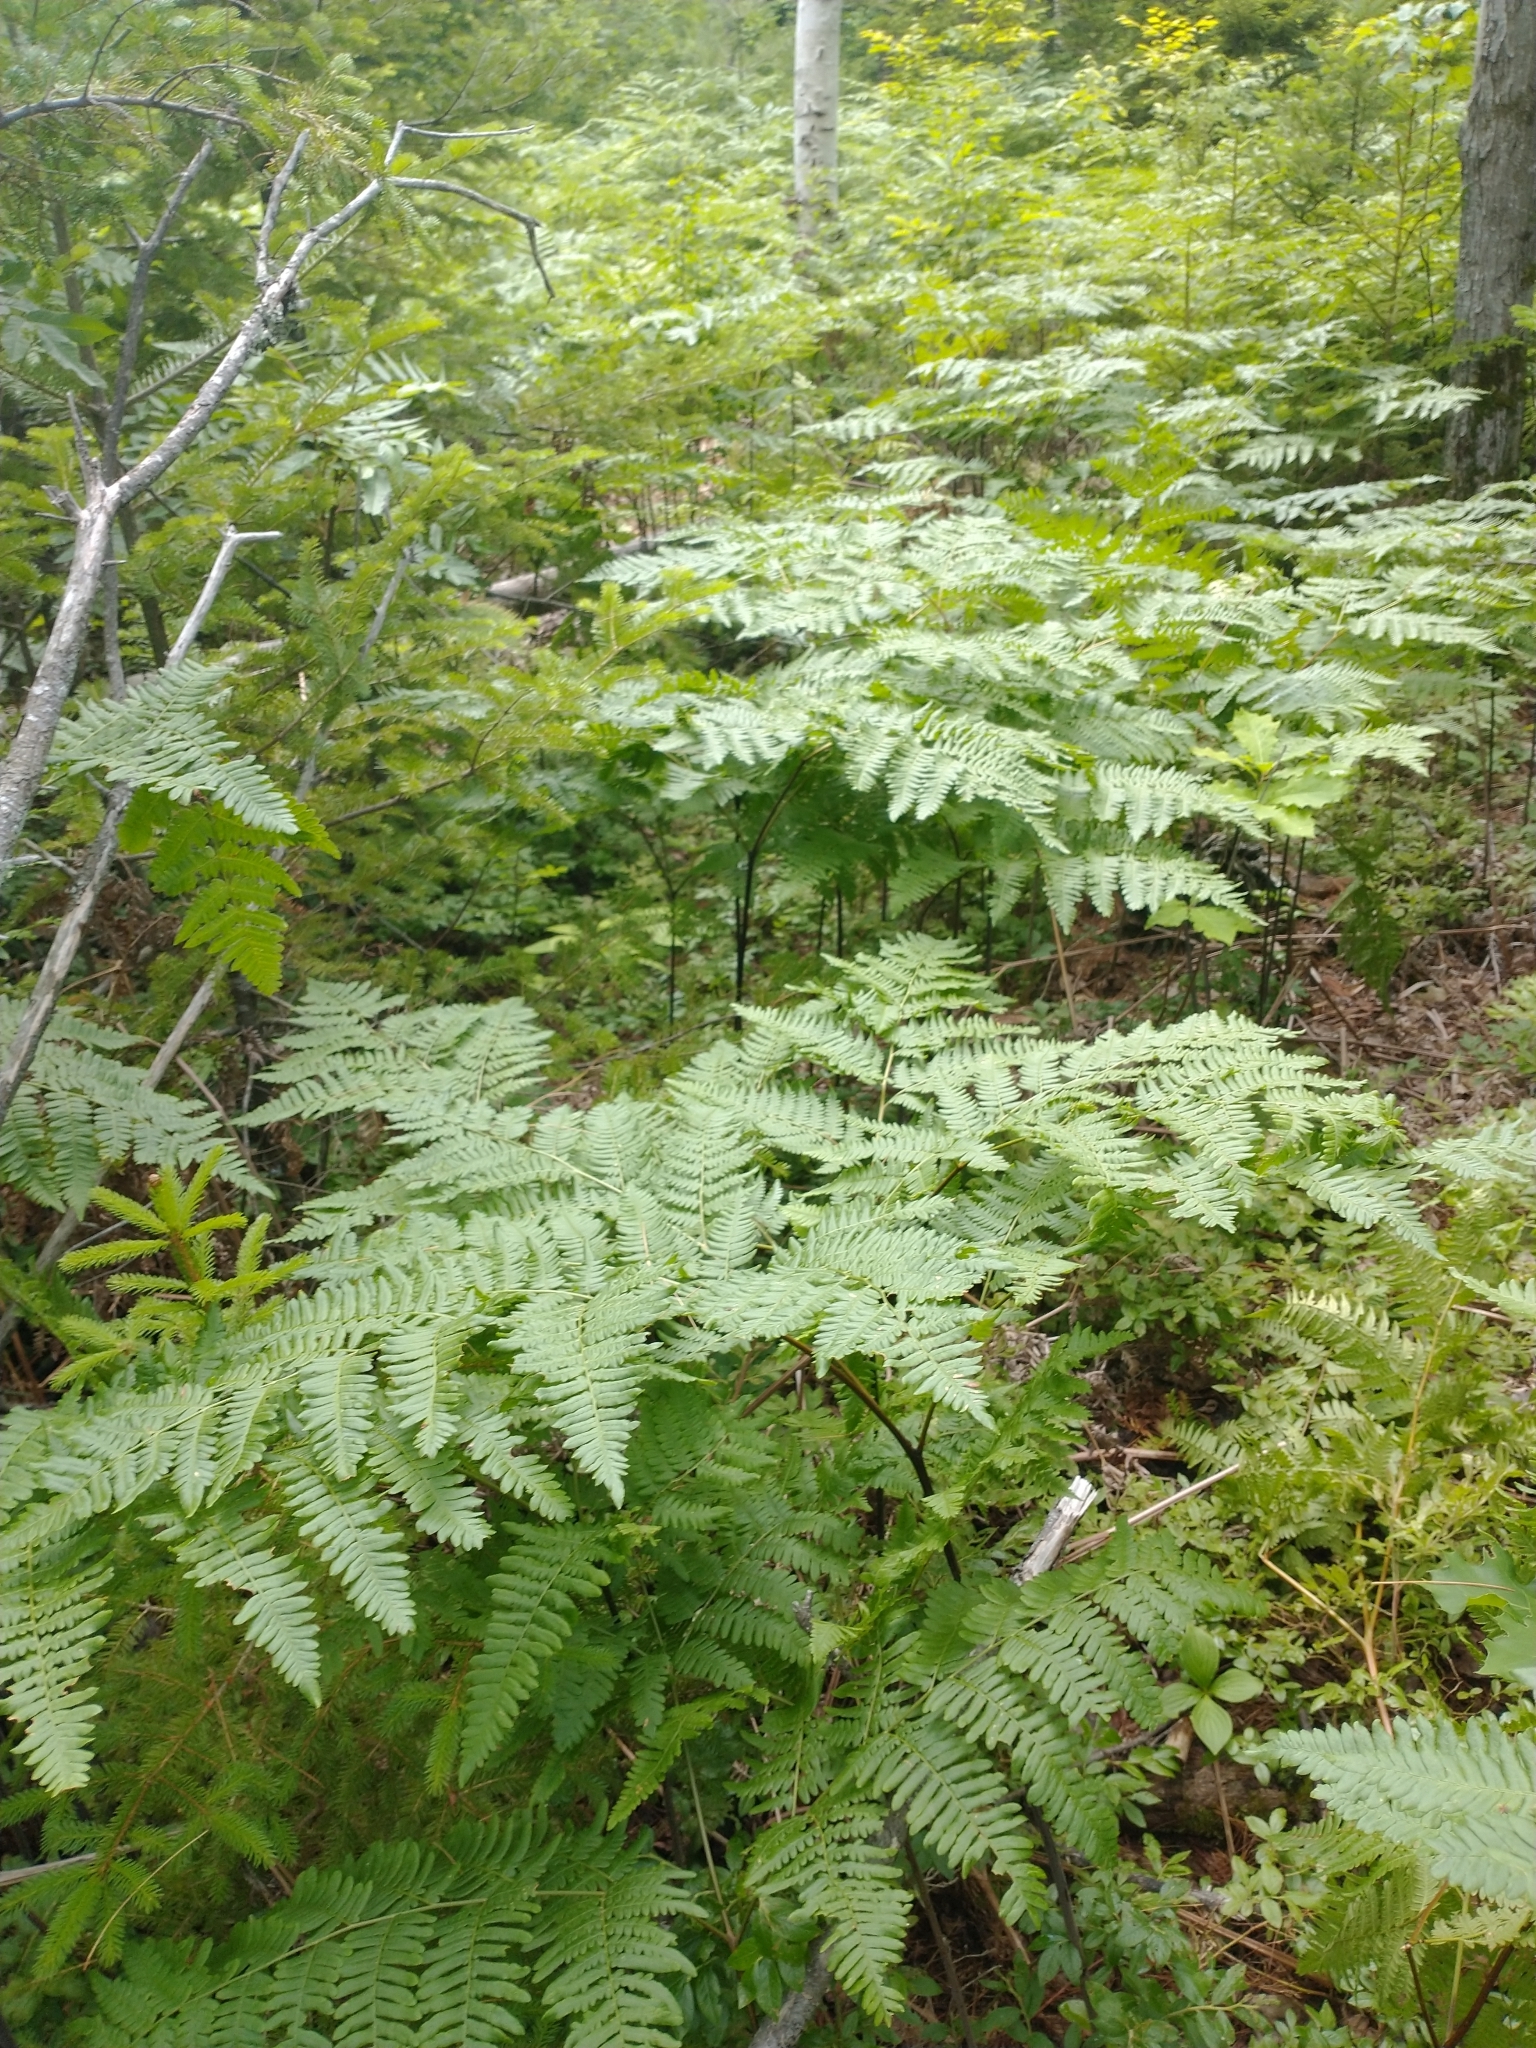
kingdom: Plantae
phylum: Tracheophyta
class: Polypodiopsida
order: Polypodiales
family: Dennstaedtiaceae
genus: Pteridium
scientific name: Pteridium aquilinum
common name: Bracken
